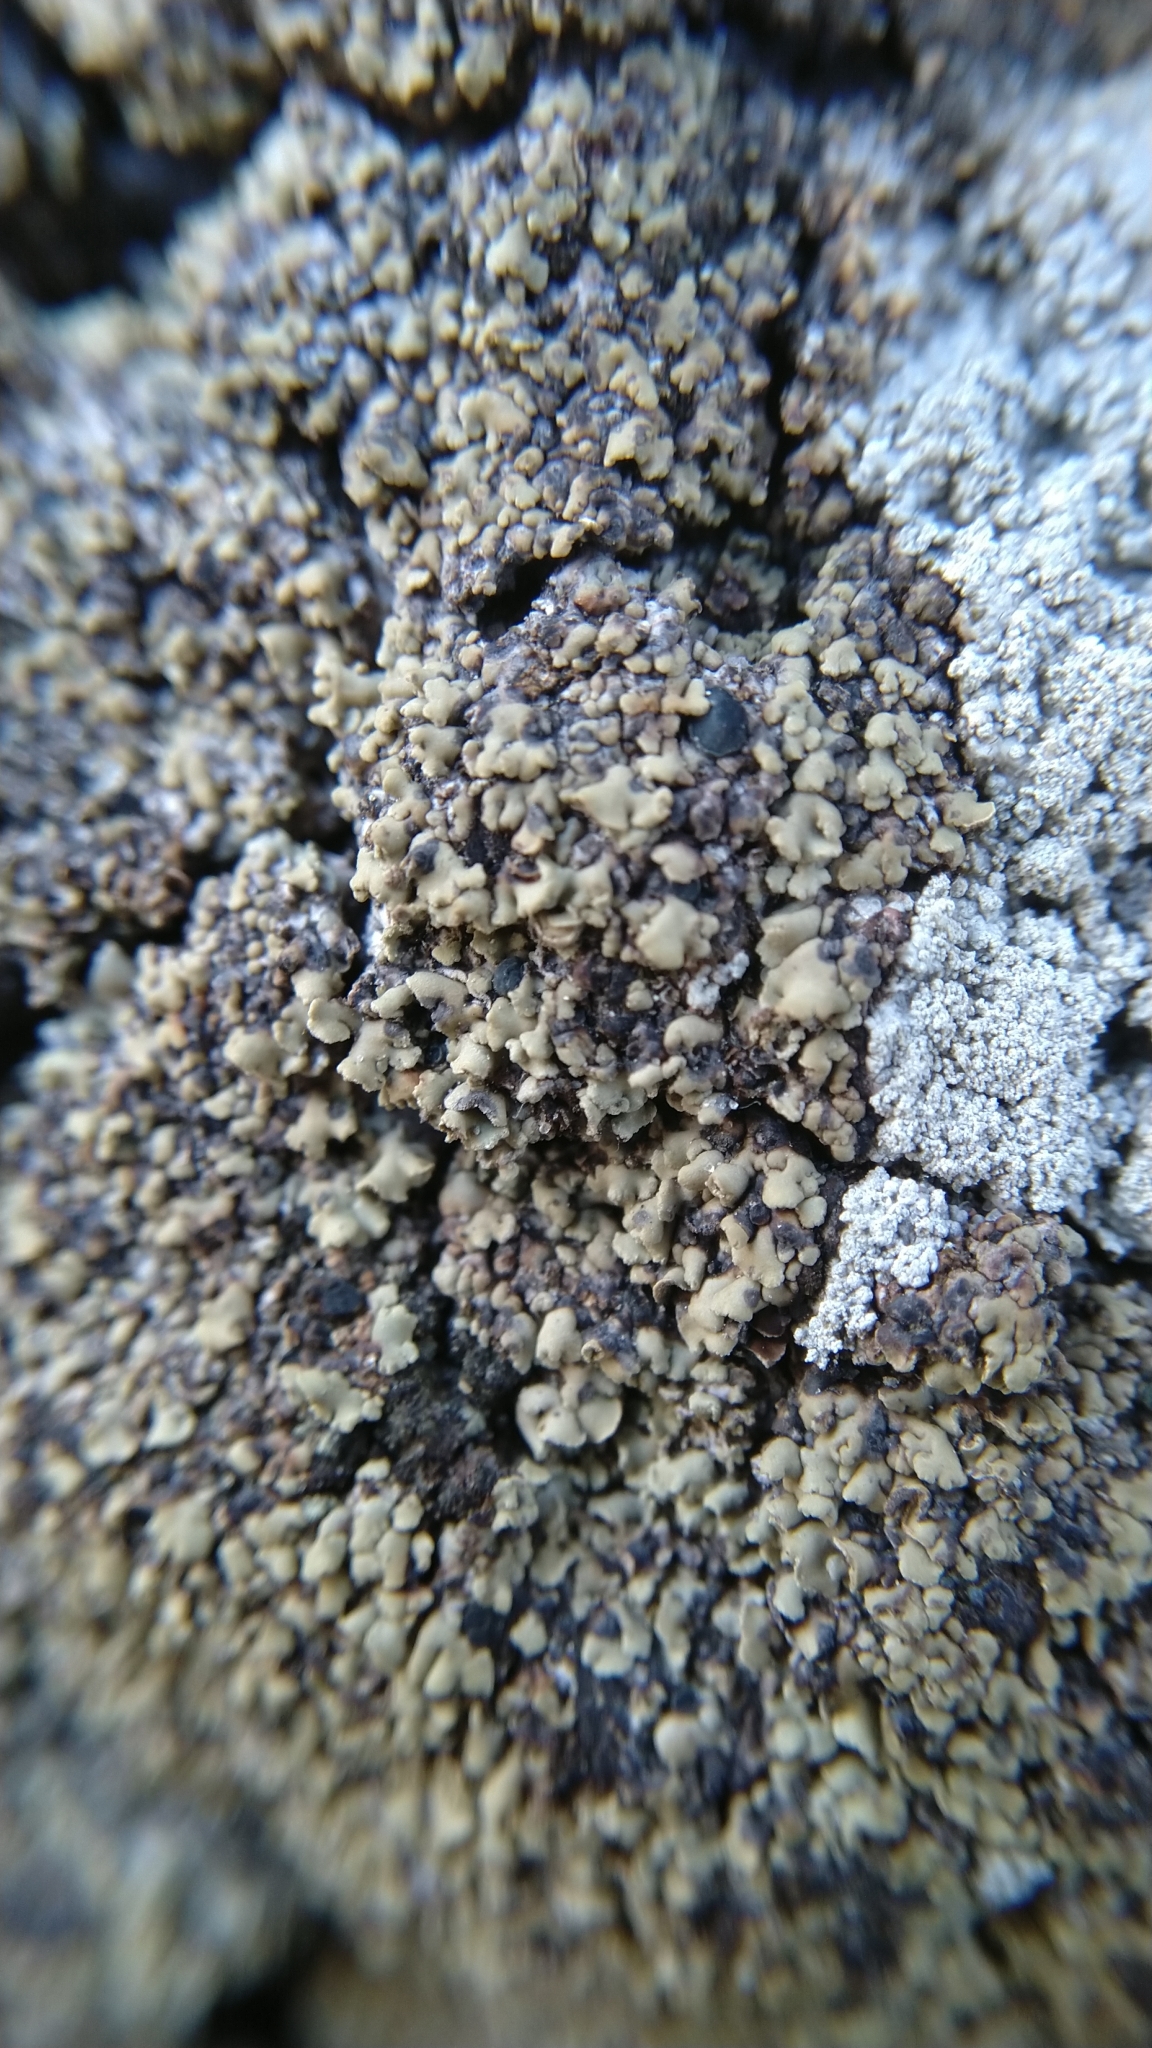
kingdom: Fungi
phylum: Ascomycota
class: Dothideomycetes
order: Trypetheliales
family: Polycoccaceae
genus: Clypeococcum
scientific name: Clypeococcum hypocenomycis
